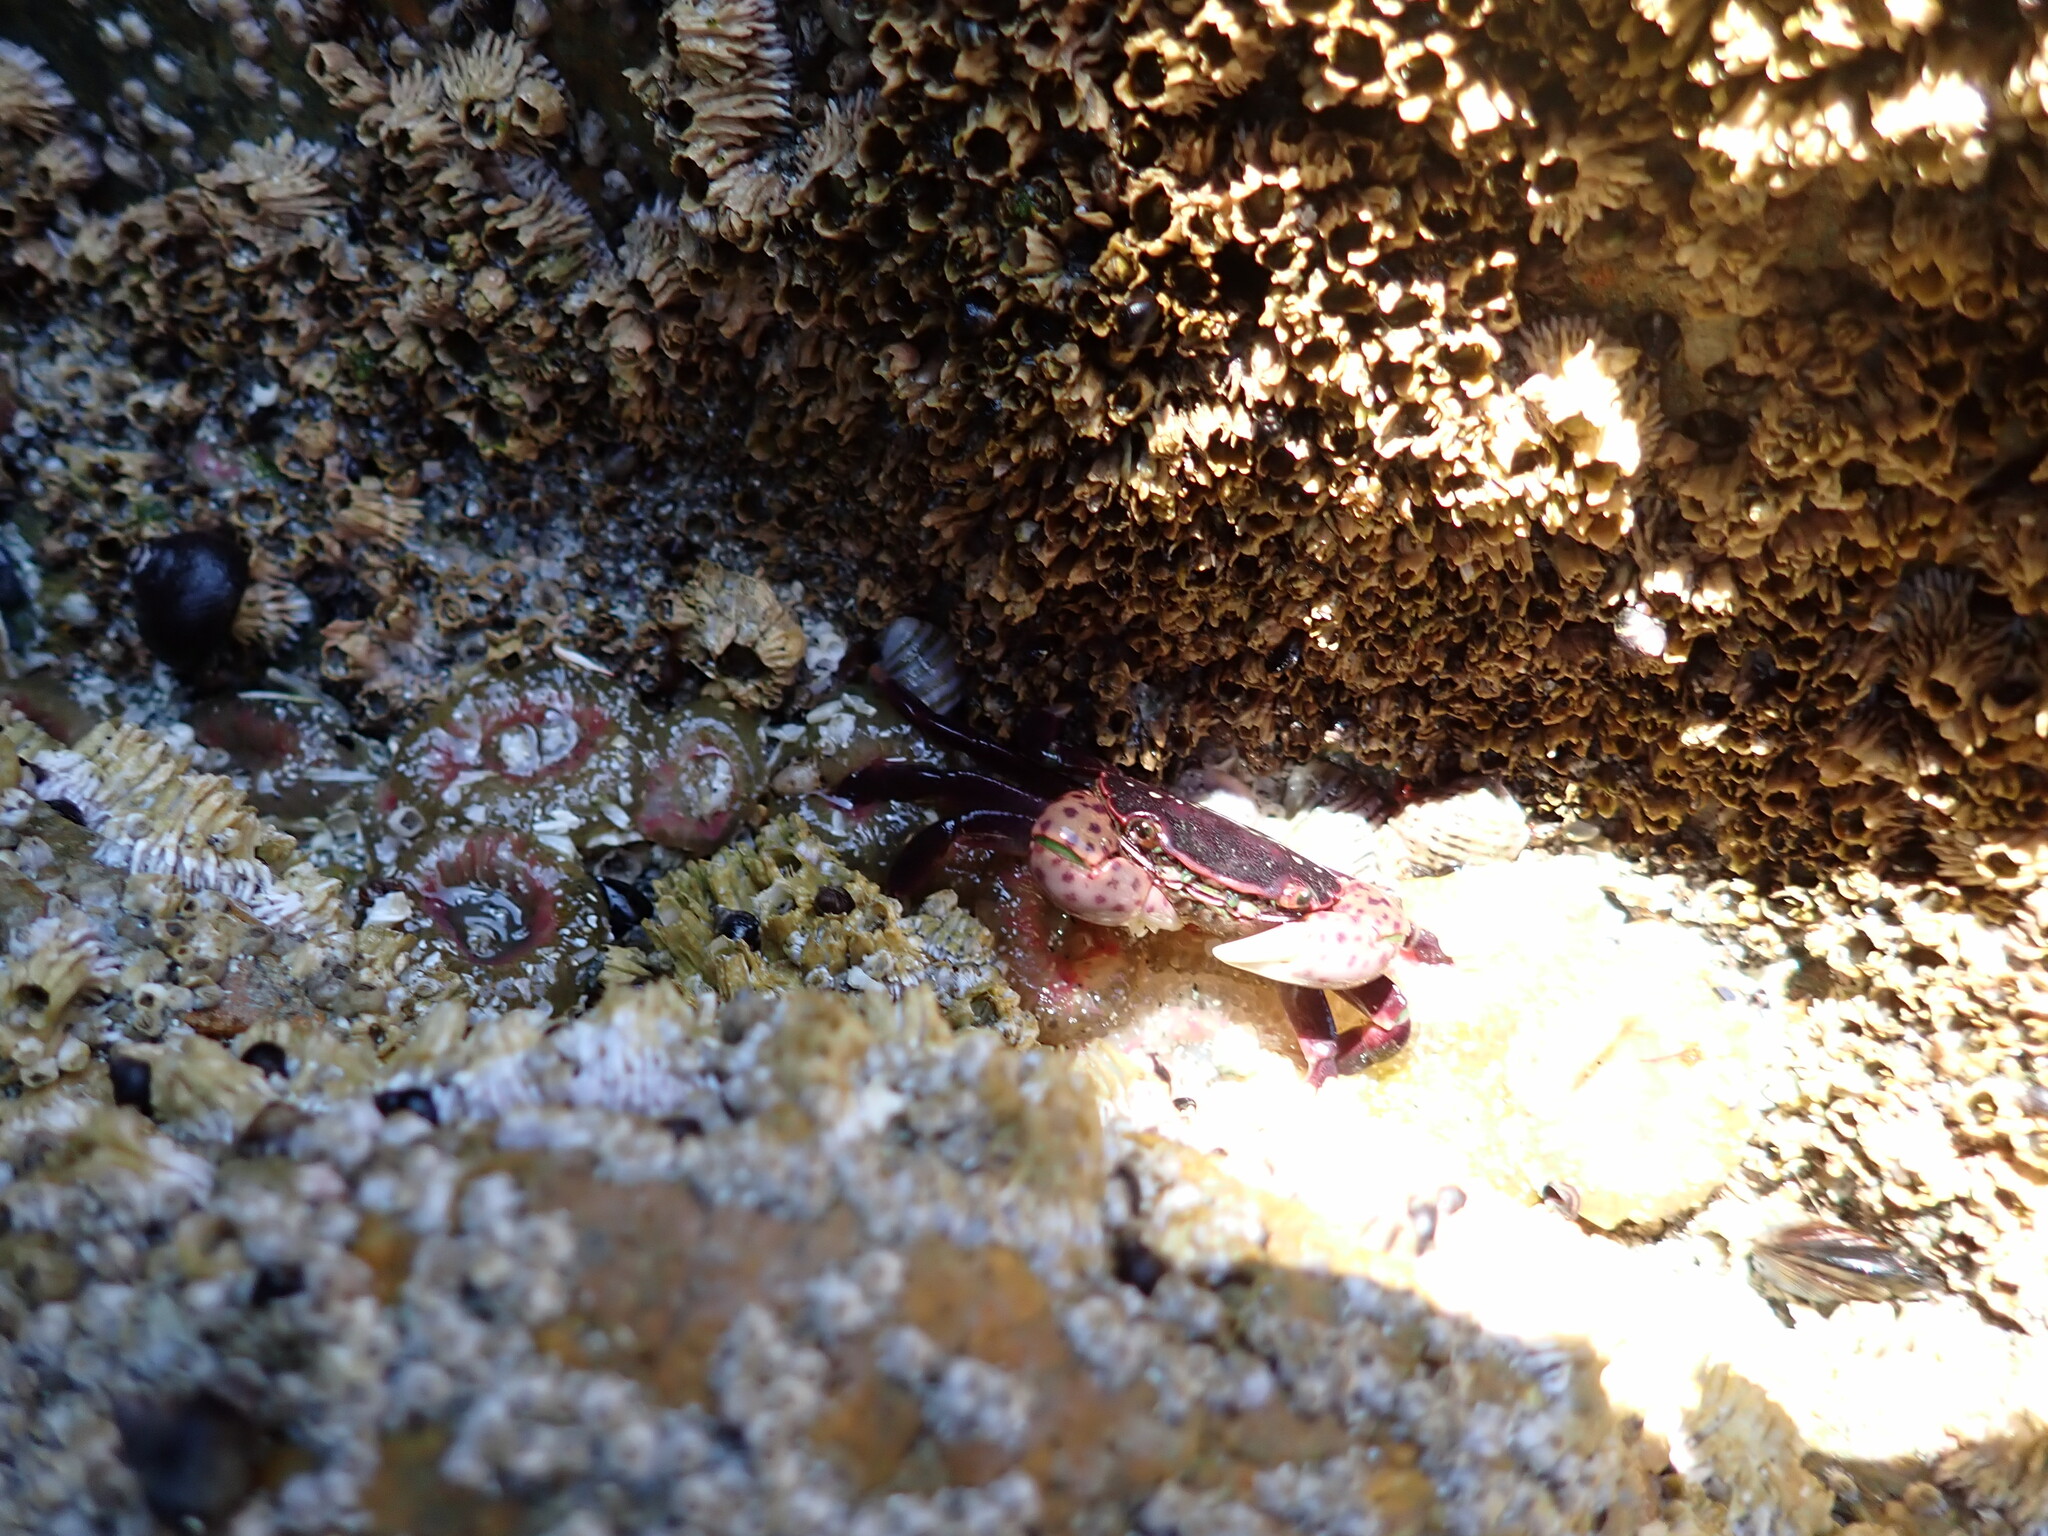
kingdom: Animalia
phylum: Arthropoda
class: Malacostraca
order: Decapoda
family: Varunidae
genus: Hemigrapsus
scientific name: Hemigrapsus nudus
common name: Purple shore crab
